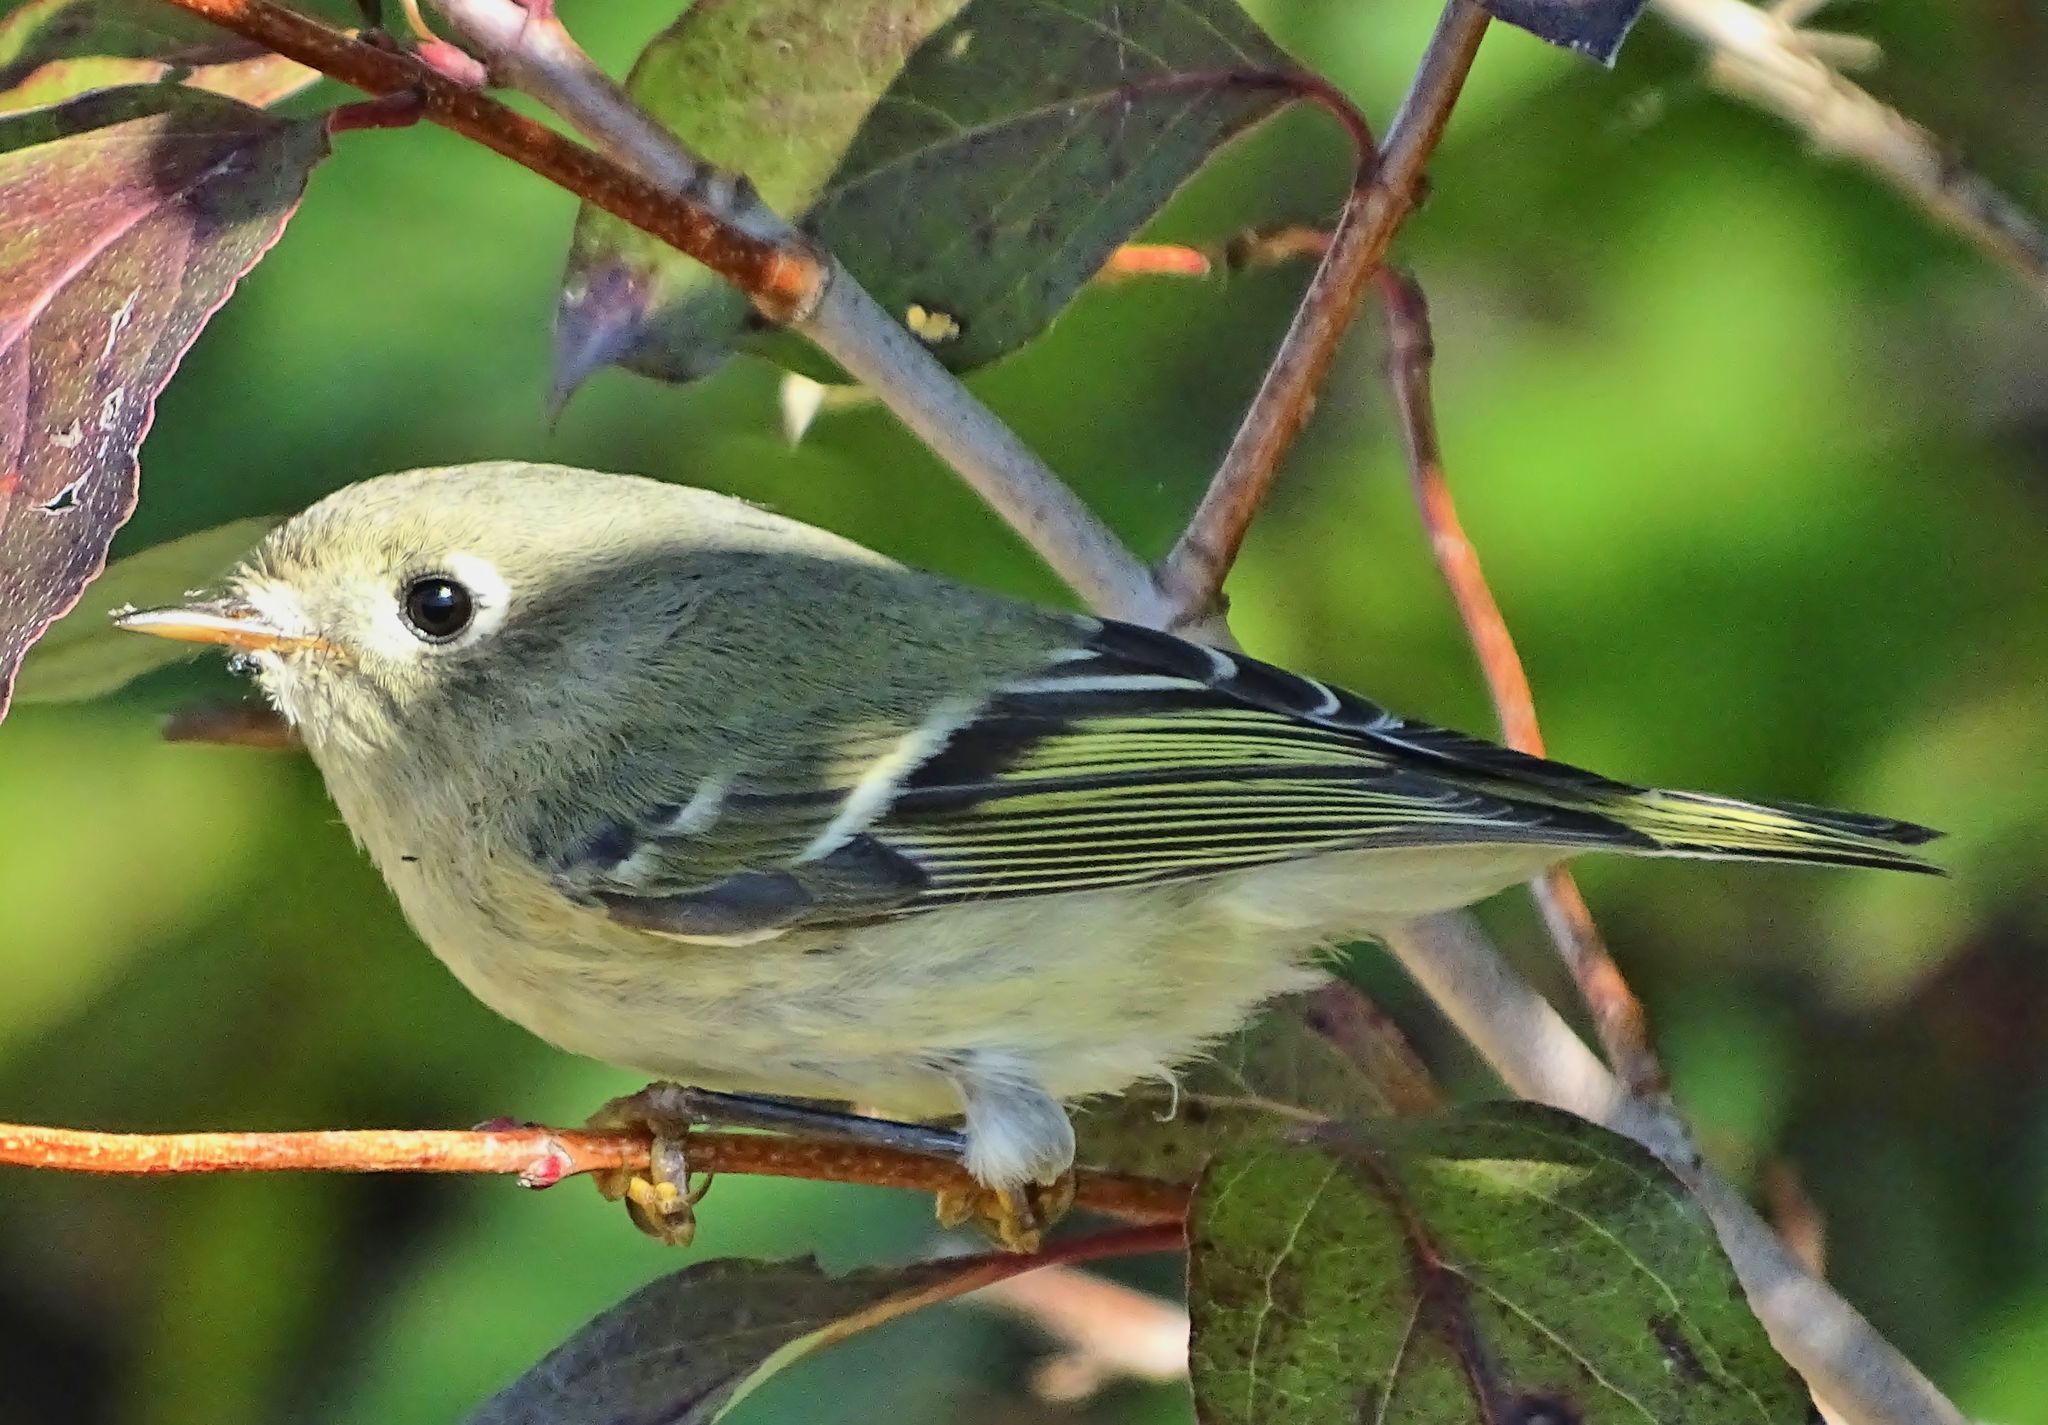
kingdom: Animalia
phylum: Chordata
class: Aves
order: Passeriformes
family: Regulidae
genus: Regulus
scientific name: Regulus calendula
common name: Ruby-crowned kinglet
